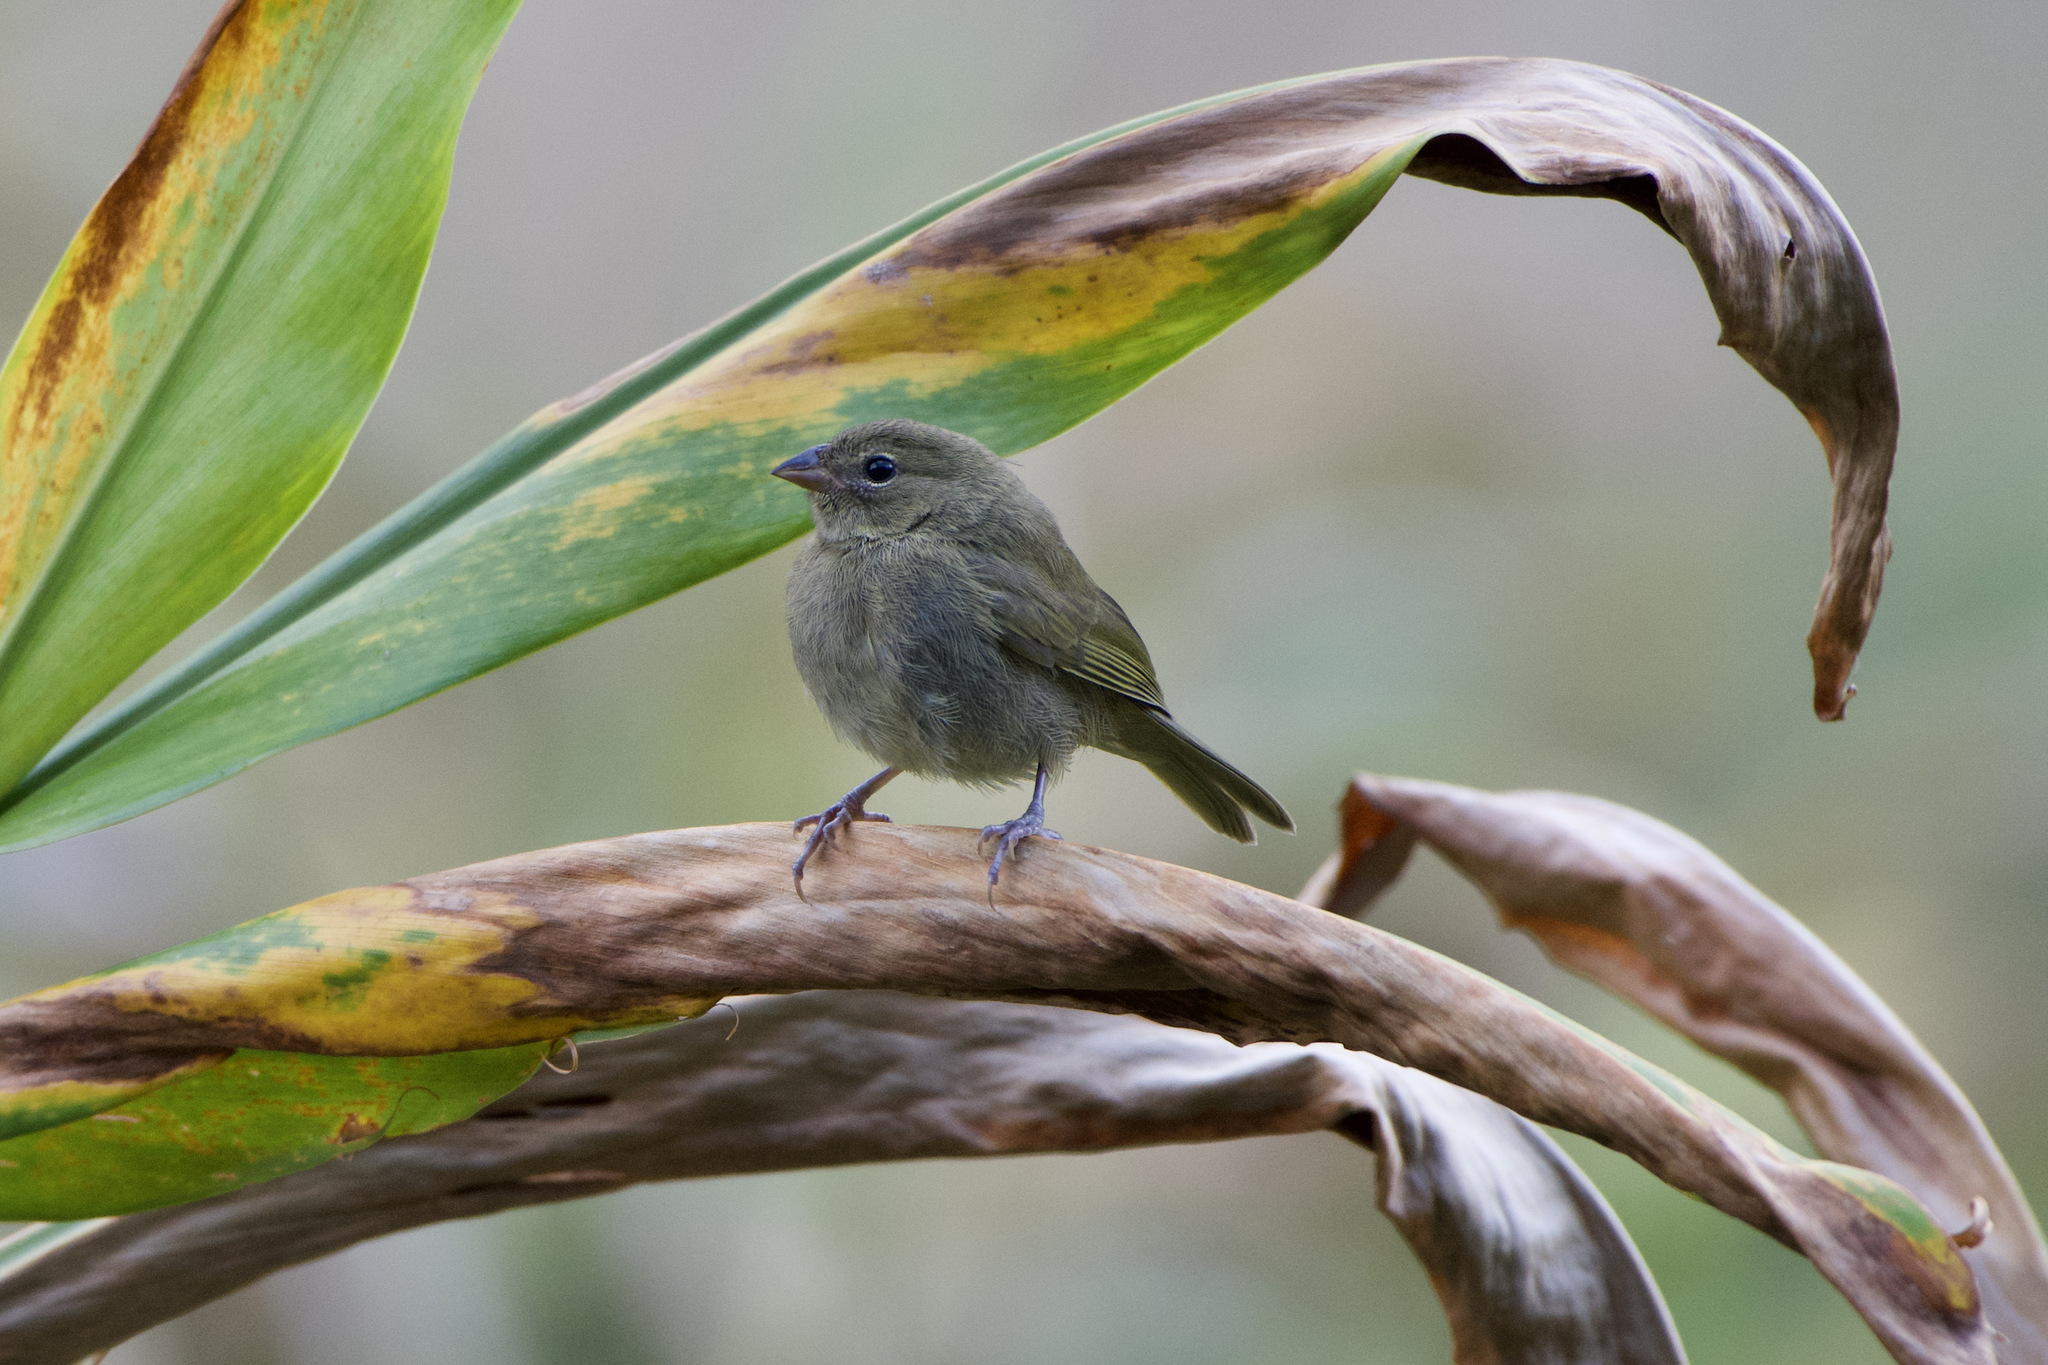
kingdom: Animalia
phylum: Chordata
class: Aves
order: Passeriformes
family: Thraupidae
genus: Tiaris
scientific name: Tiaris olivaceus
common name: Yellow-faced grassquit
